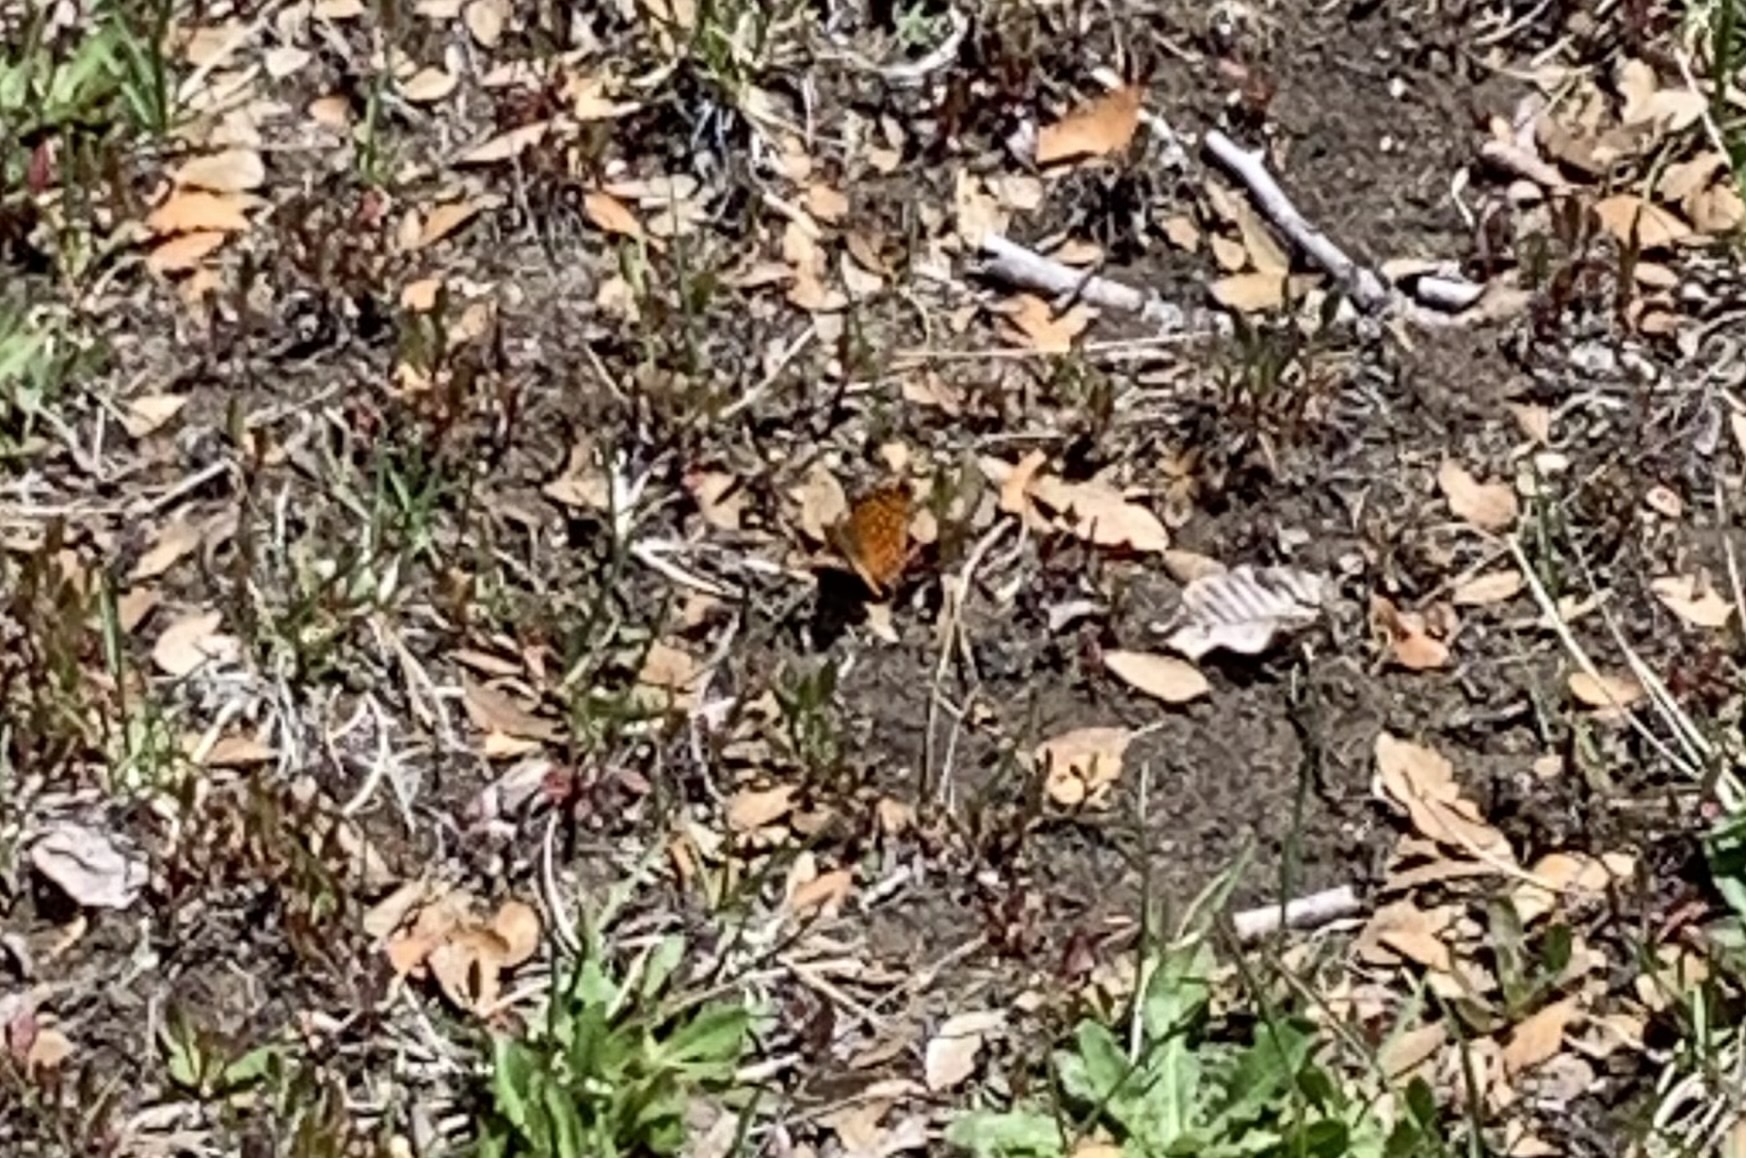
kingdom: Animalia
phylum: Arthropoda
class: Insecta
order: Lepidoptera
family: Nymphalidae
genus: Issoria
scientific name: Issoria Yramea cytheris
